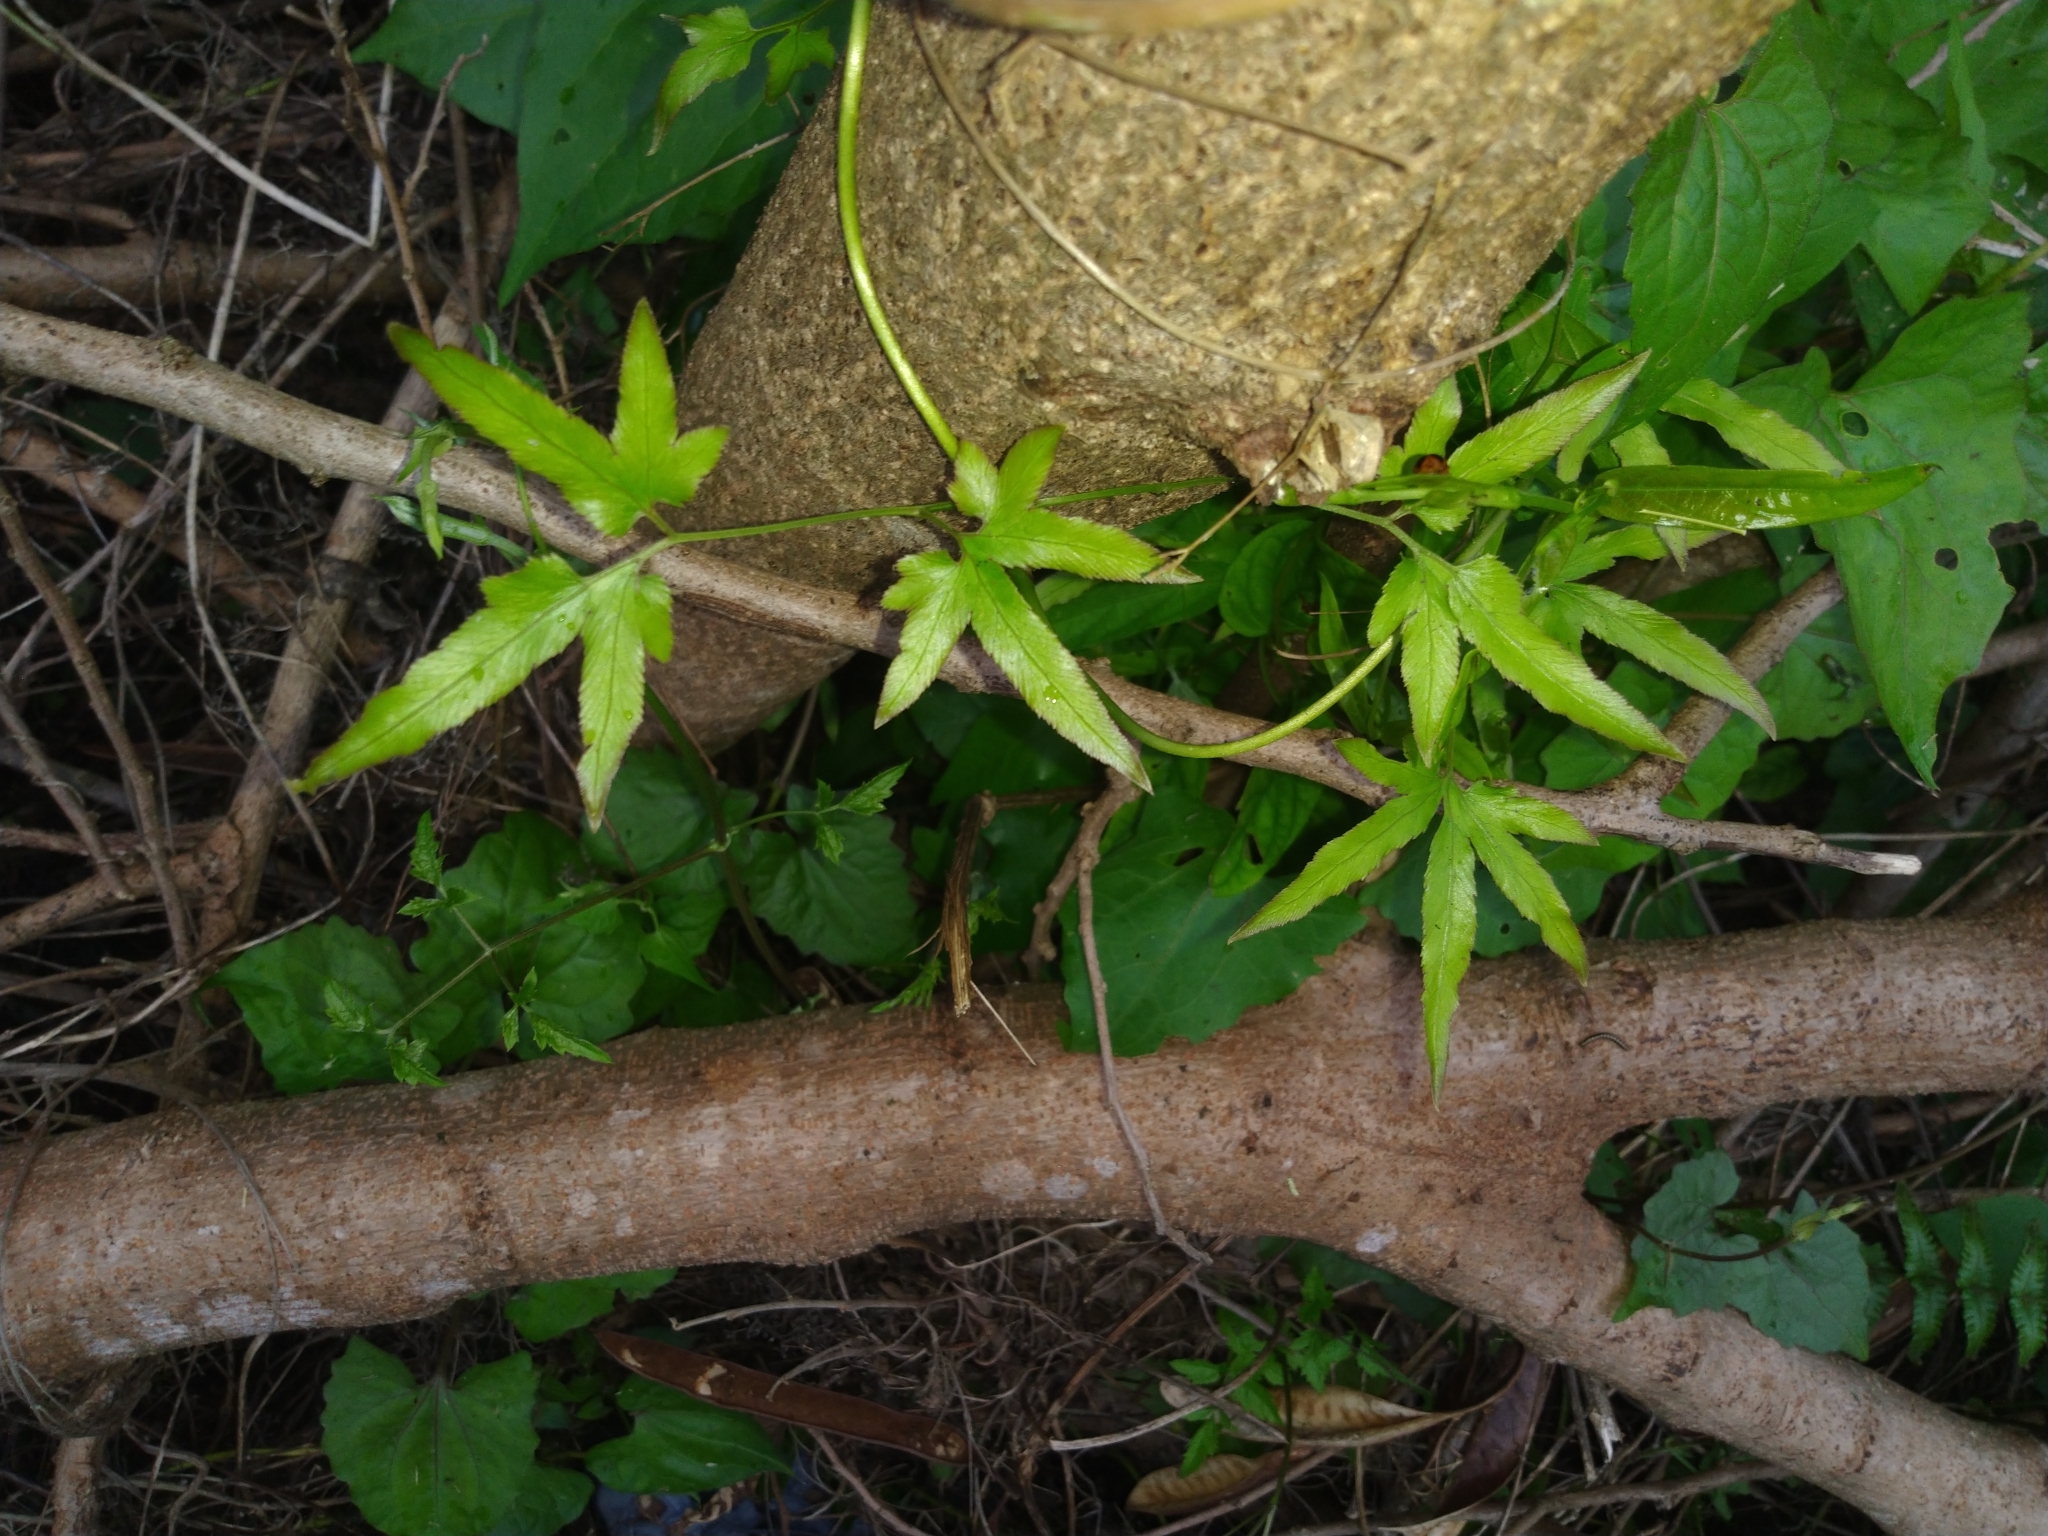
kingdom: Plantae
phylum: Tracheophyta
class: Polypodiopsida
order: Schizaeales
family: Lygodiaceae
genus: Lygodium
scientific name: Lygodium japonicum
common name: Japanese climbing fern
